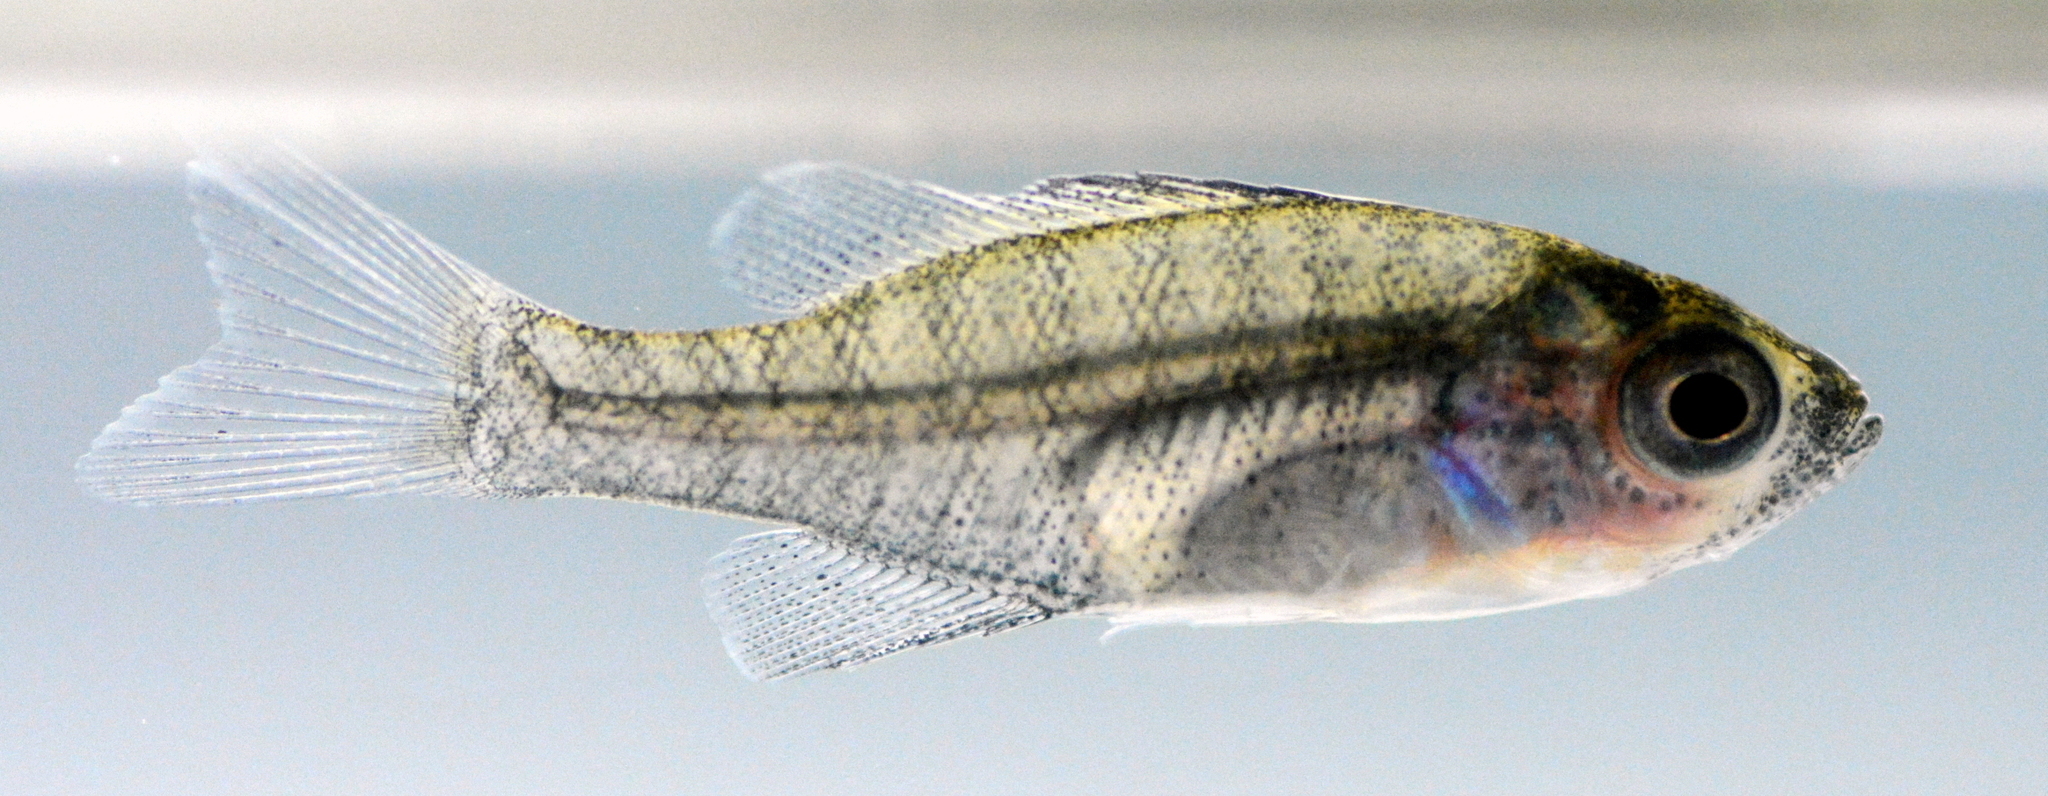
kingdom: Animalia
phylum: Chordata
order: Perciformes
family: Centrarchidae
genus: Lepomis
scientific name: Lepomis macrochirus
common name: Bluegill
